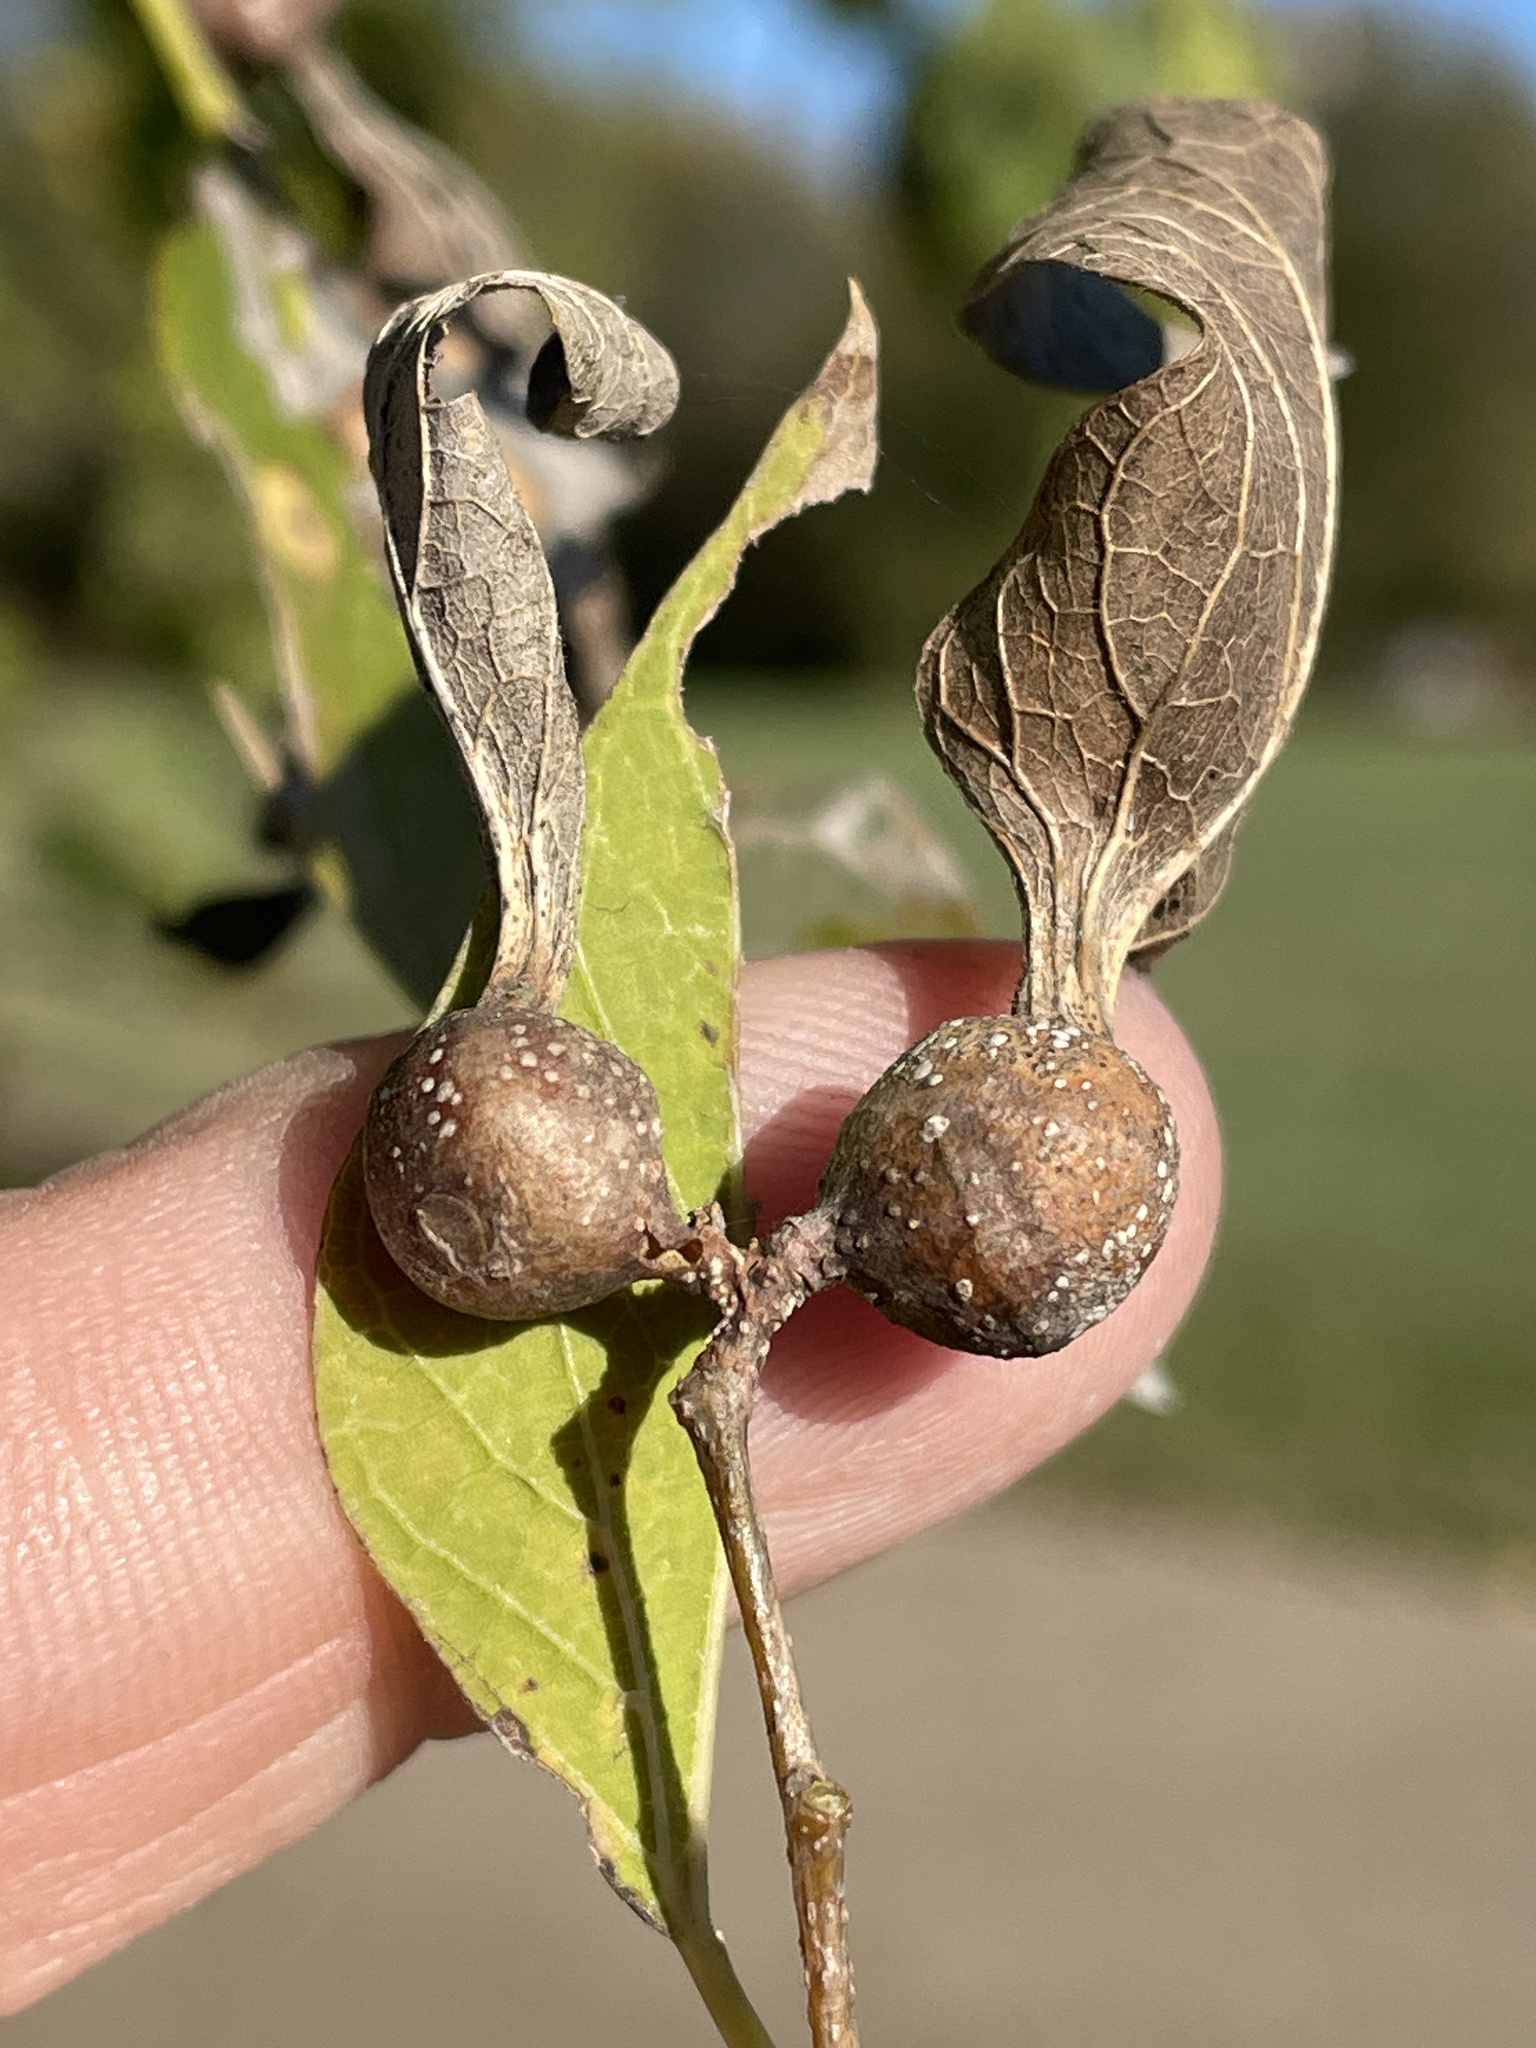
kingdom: Animalia
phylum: Arthropoda
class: Insecta
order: Hemiptera
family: Aphalaridae
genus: Pachypsylla
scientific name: Pachypsylla venusta
